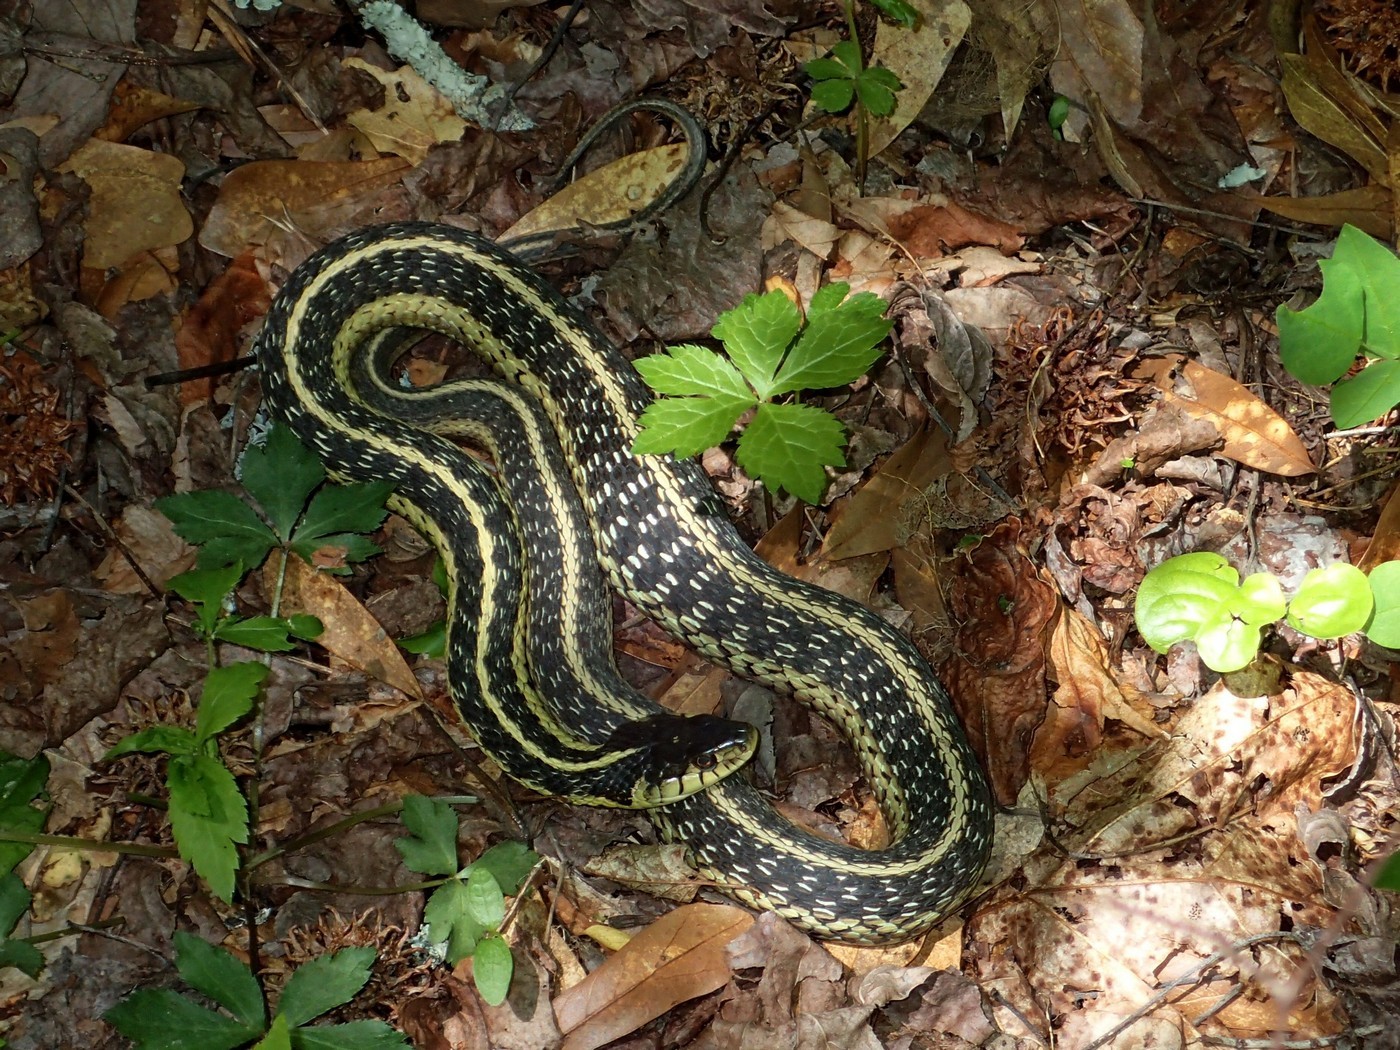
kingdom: Animalia
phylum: Chordata
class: Squamata
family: Colubridae
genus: Thamnophis
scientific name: Thamnophis sirtalis
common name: Common garter snake
